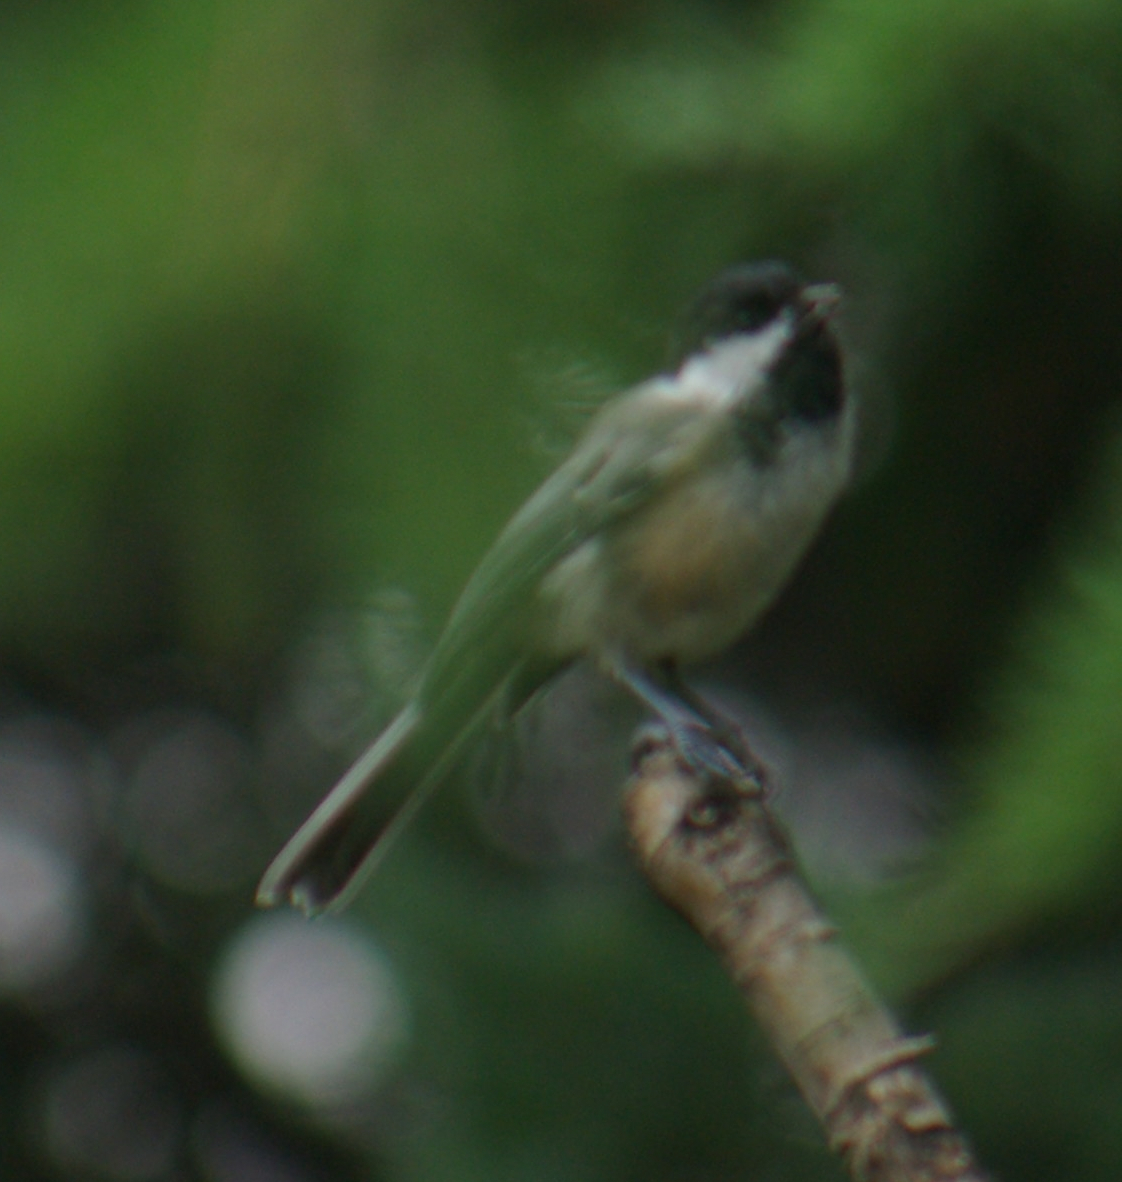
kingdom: Animalia
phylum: Chordata
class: Aves
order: Passeriformes
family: Paridae
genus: Poecile
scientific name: Poecile atricapillus
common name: Black-capped chickadee
